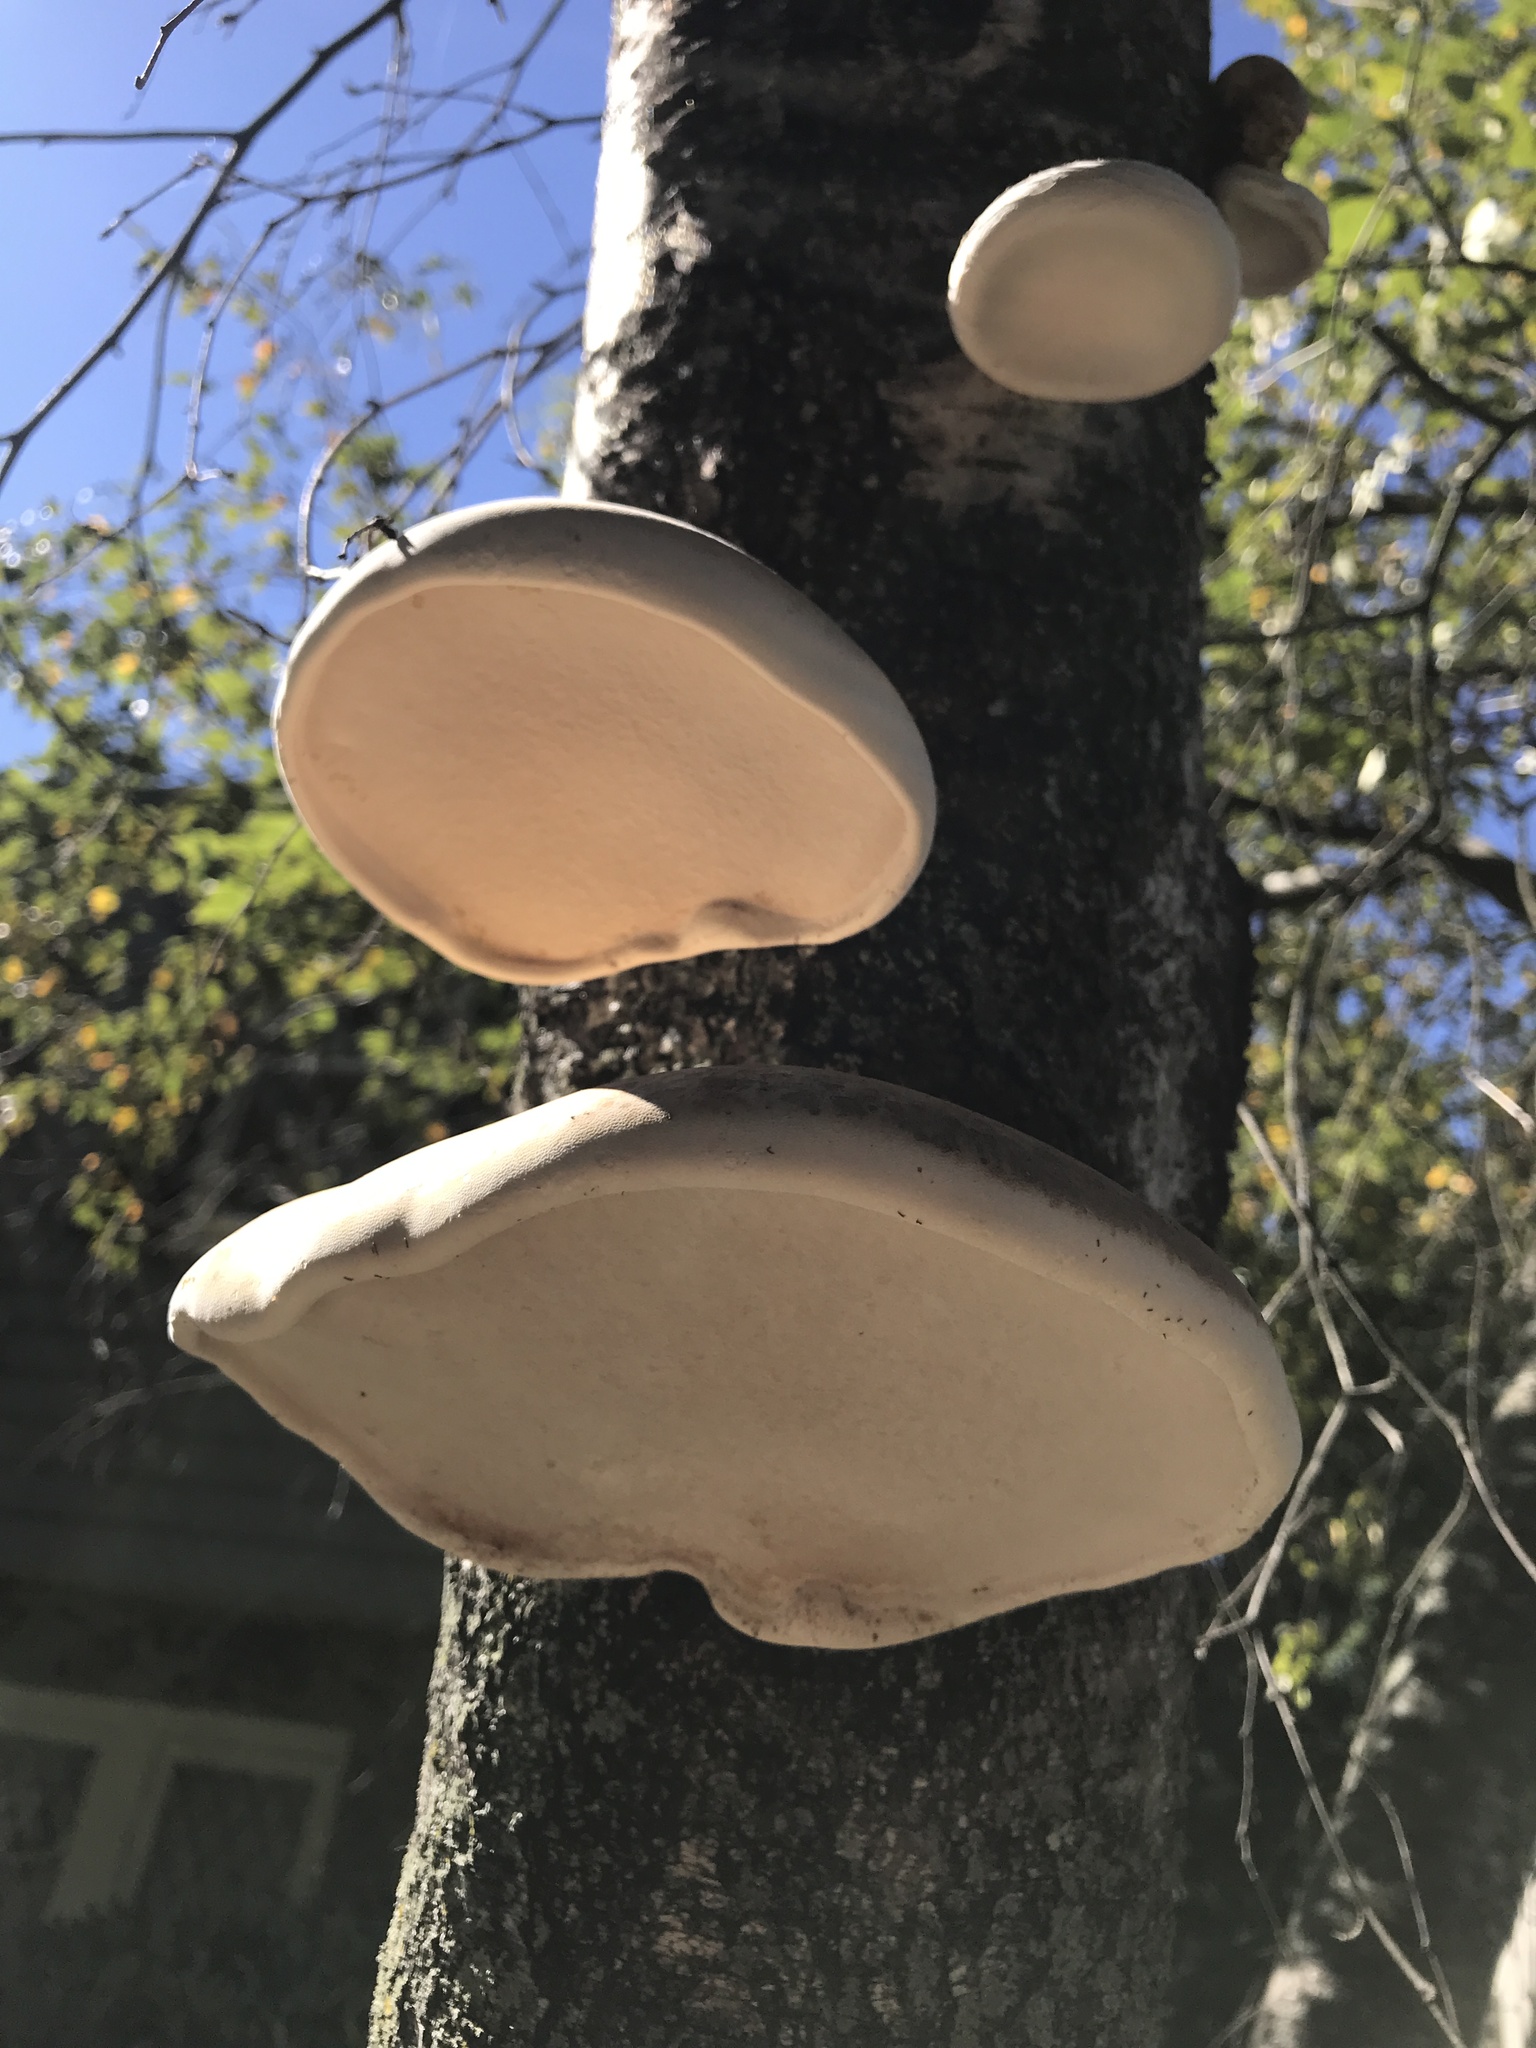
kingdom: Fungi
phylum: Basidiomycota
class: Agaricomycetes
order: Polyporales
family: Fomitopsidaceae
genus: Fomitopsis
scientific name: Fomitopsis betulina
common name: Birch polypore
